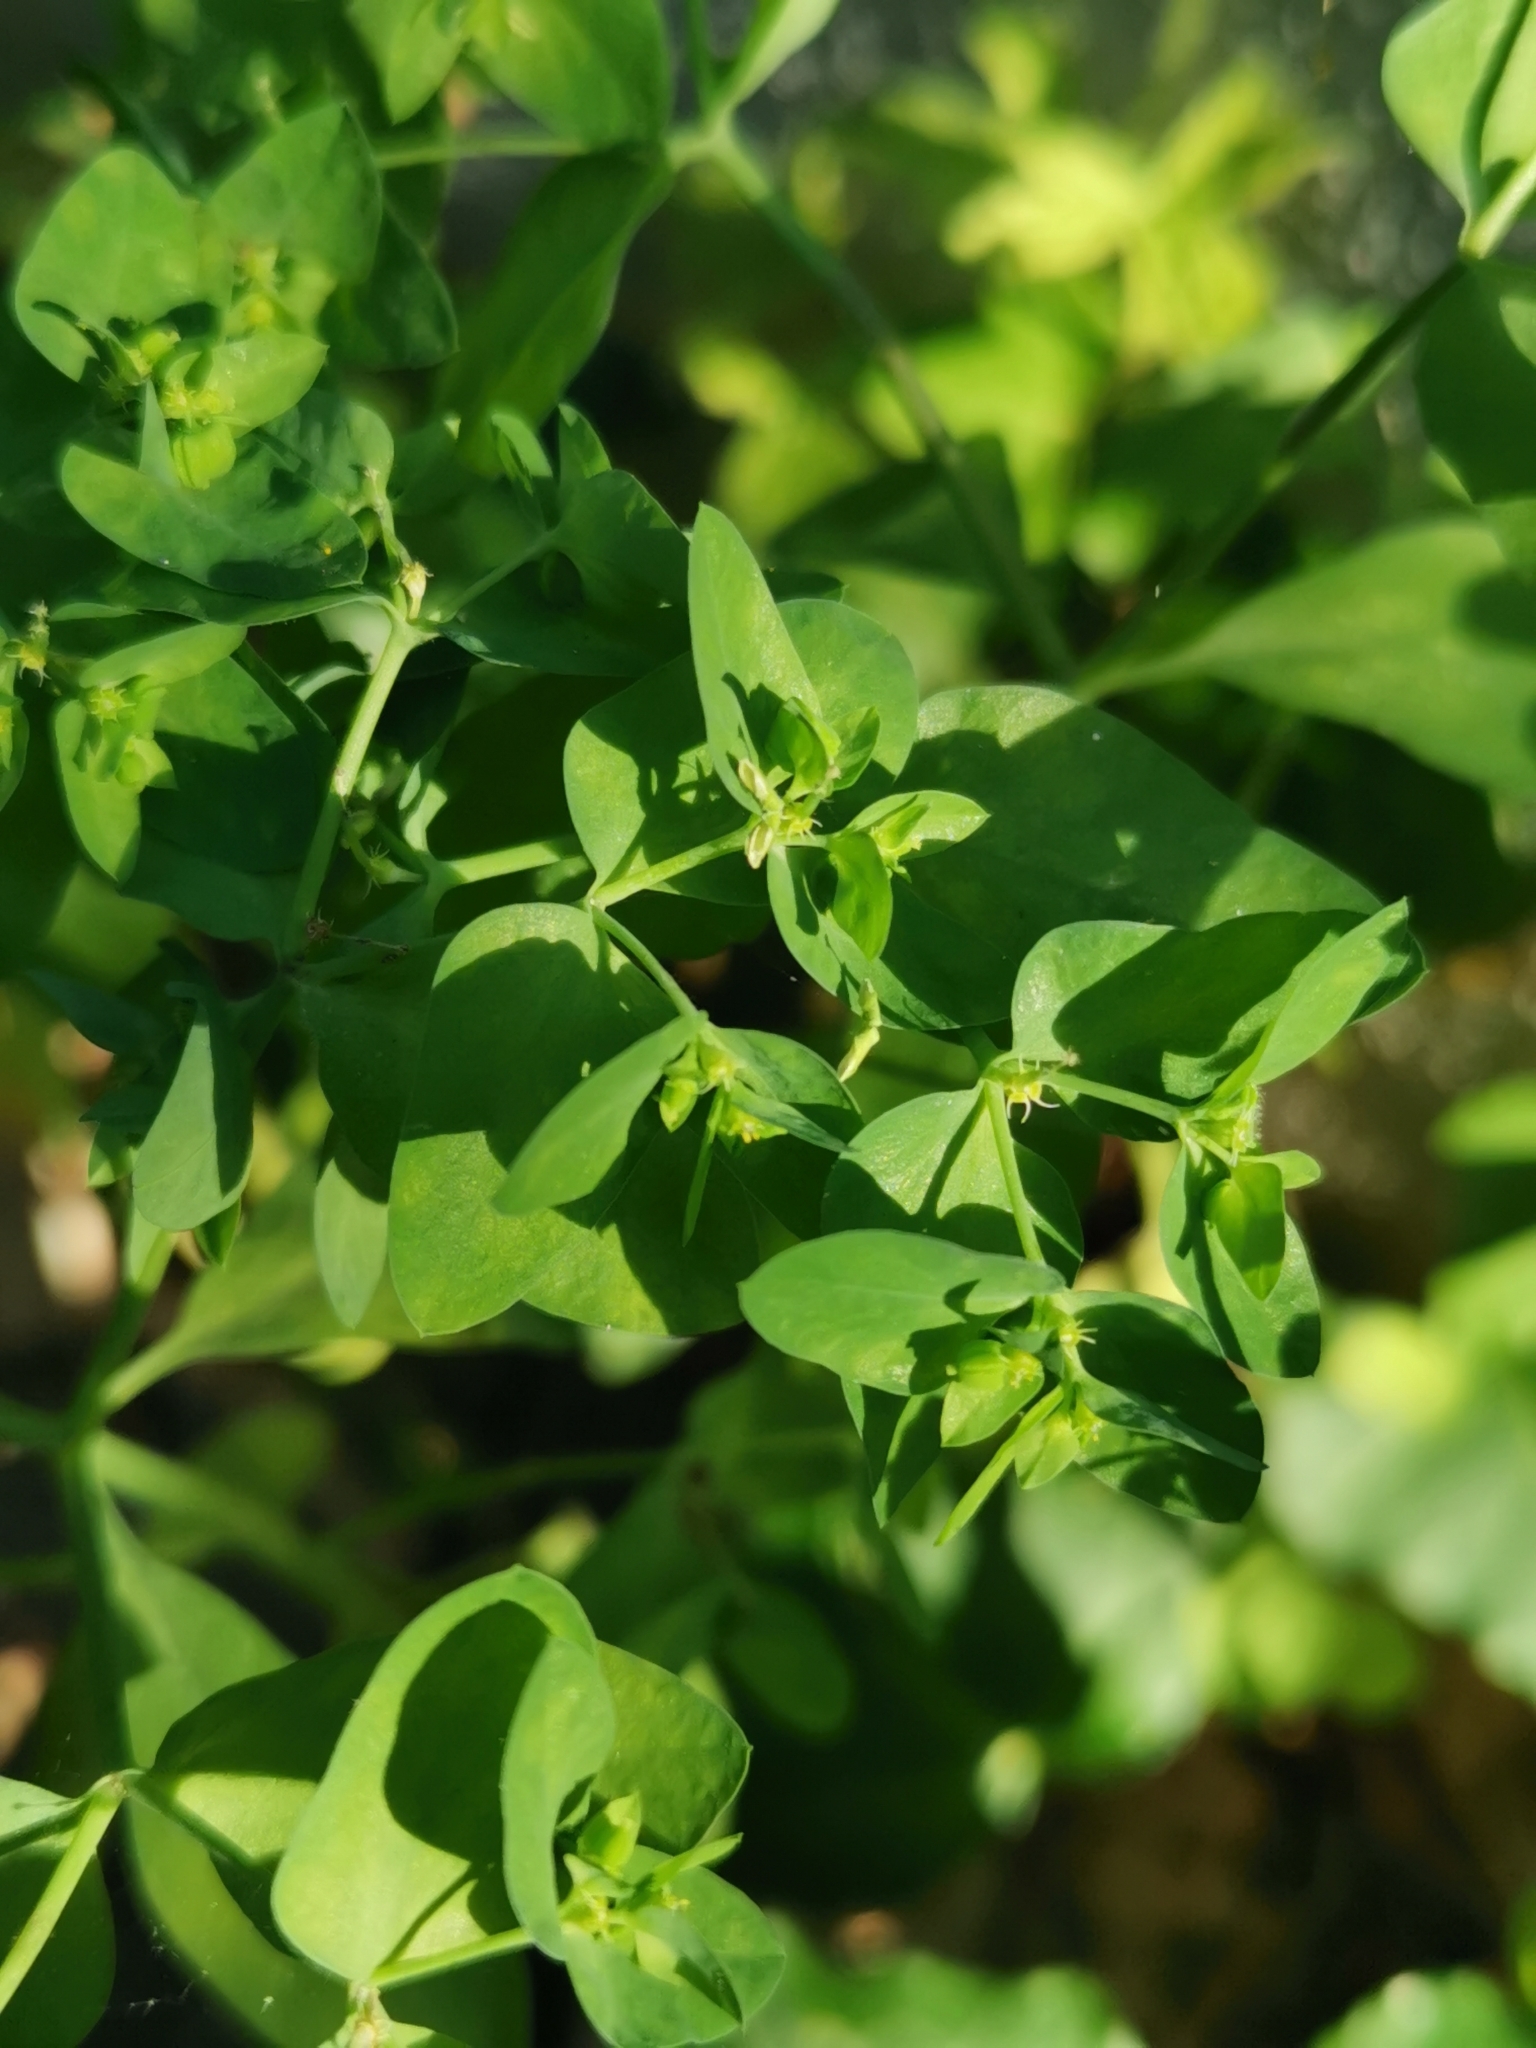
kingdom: Plantae
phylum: Tracheophyta
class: Magnoliopsida
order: Malpighiales
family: Euphorbiaceae
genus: Euphorbia
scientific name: Euphorbia peplus
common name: Petty spurge
